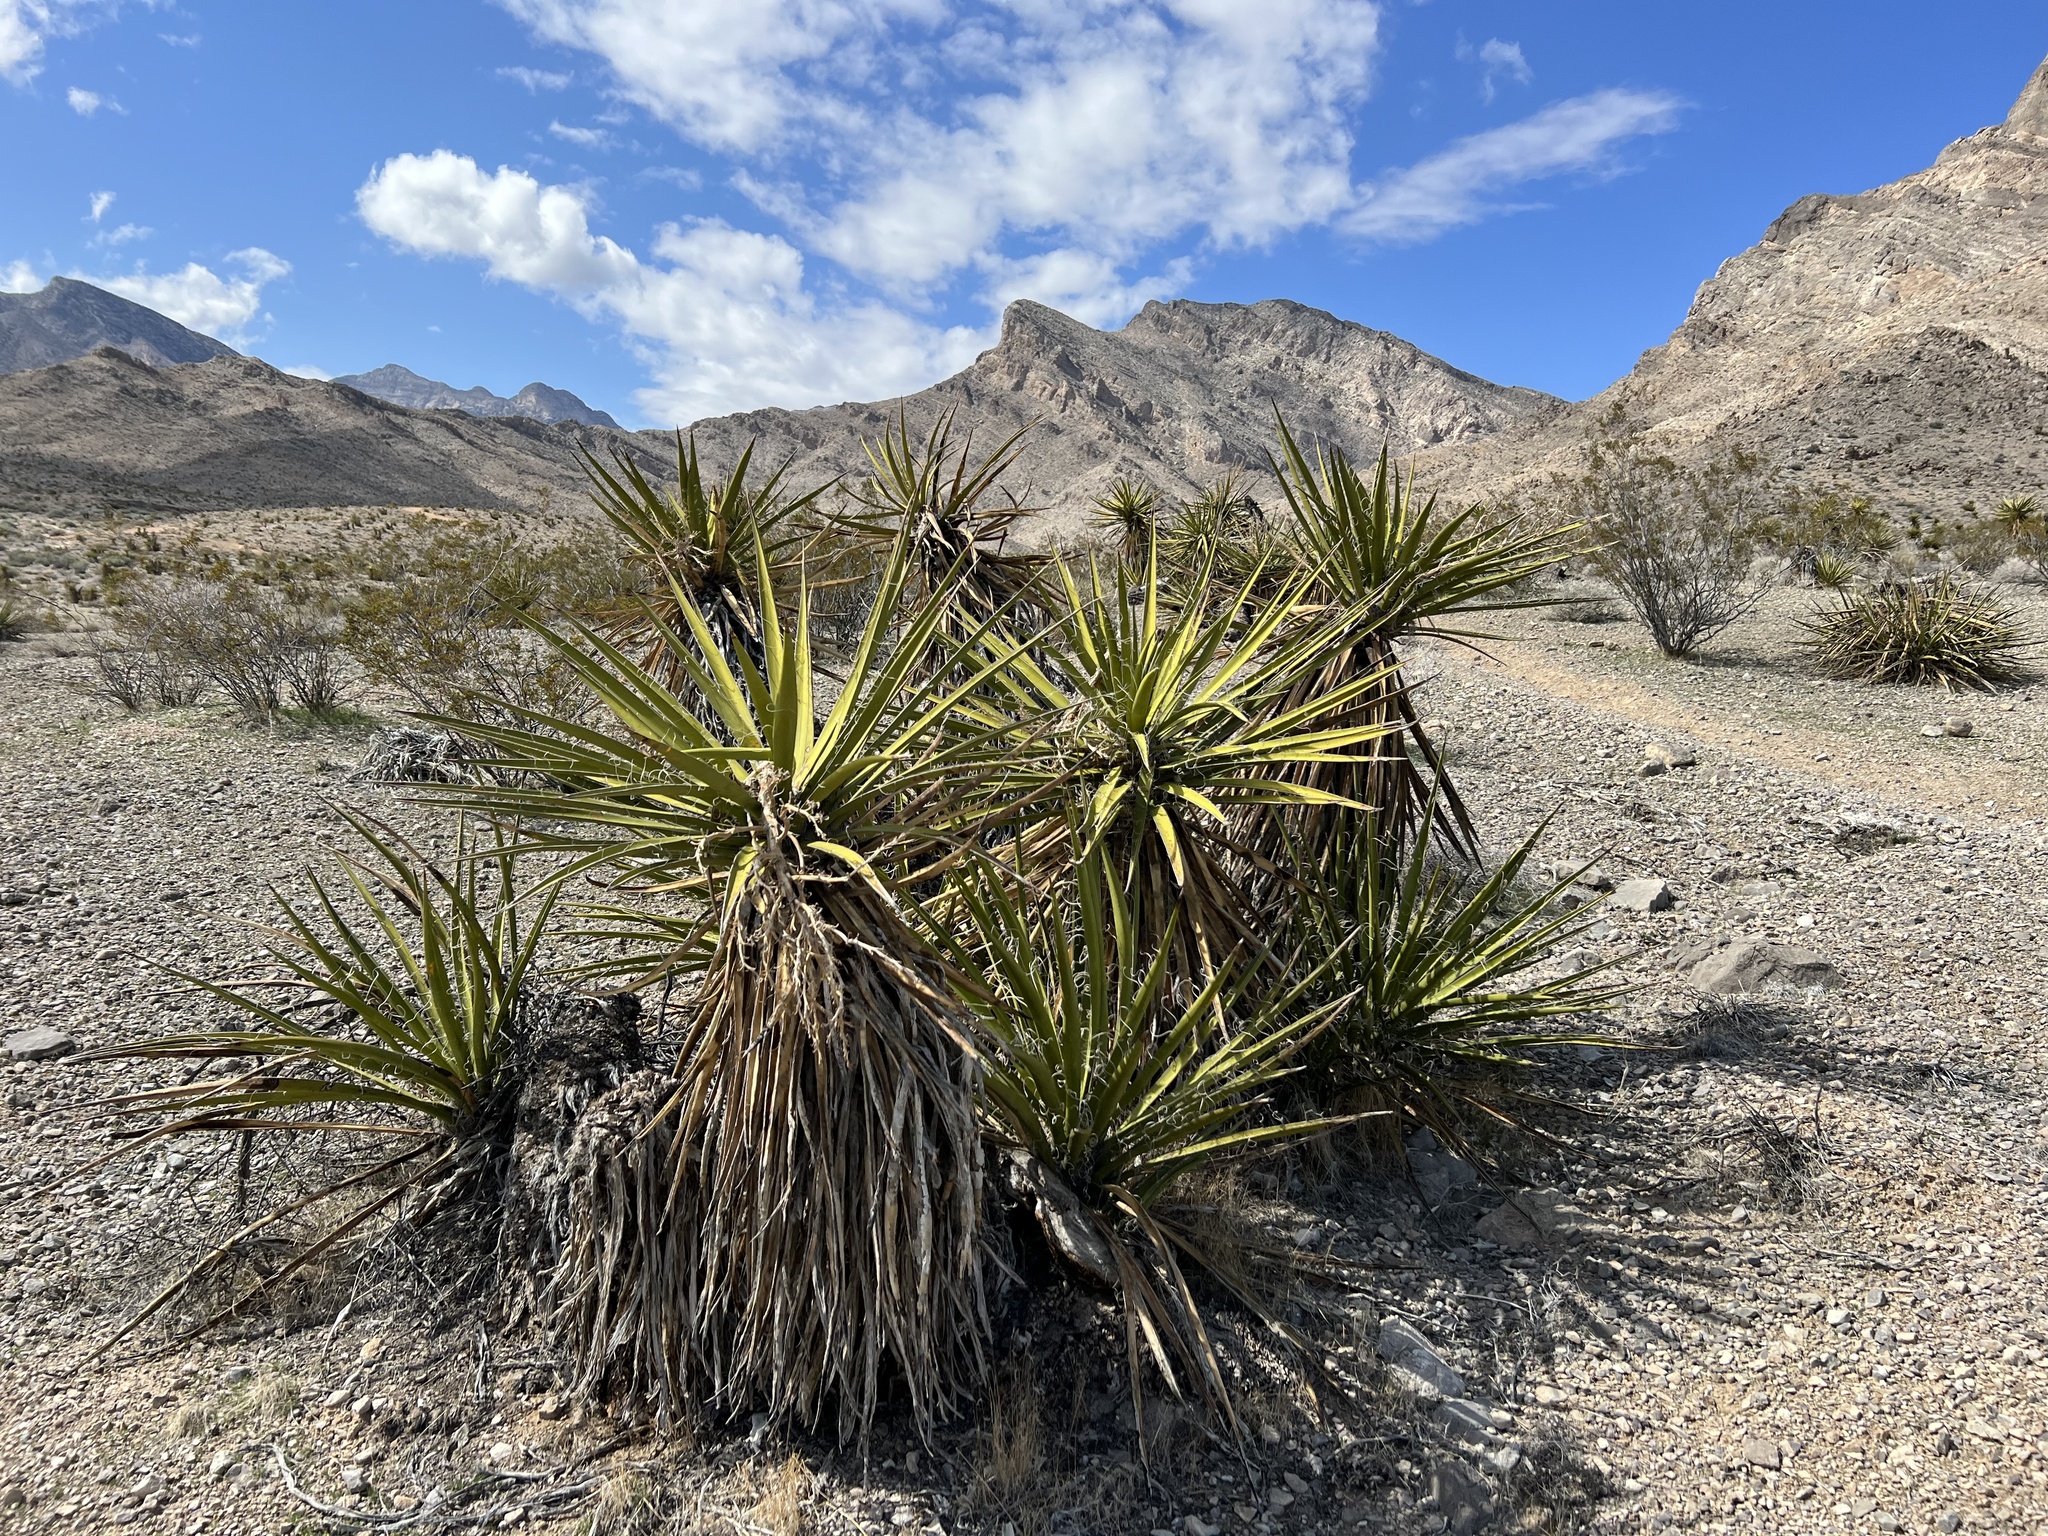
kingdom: Plantae
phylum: Tracheophyta
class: Liliopsida
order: Asparagales
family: Asparagaceae
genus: Yucca
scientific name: Yucca schidigera
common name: Mojave yucca
